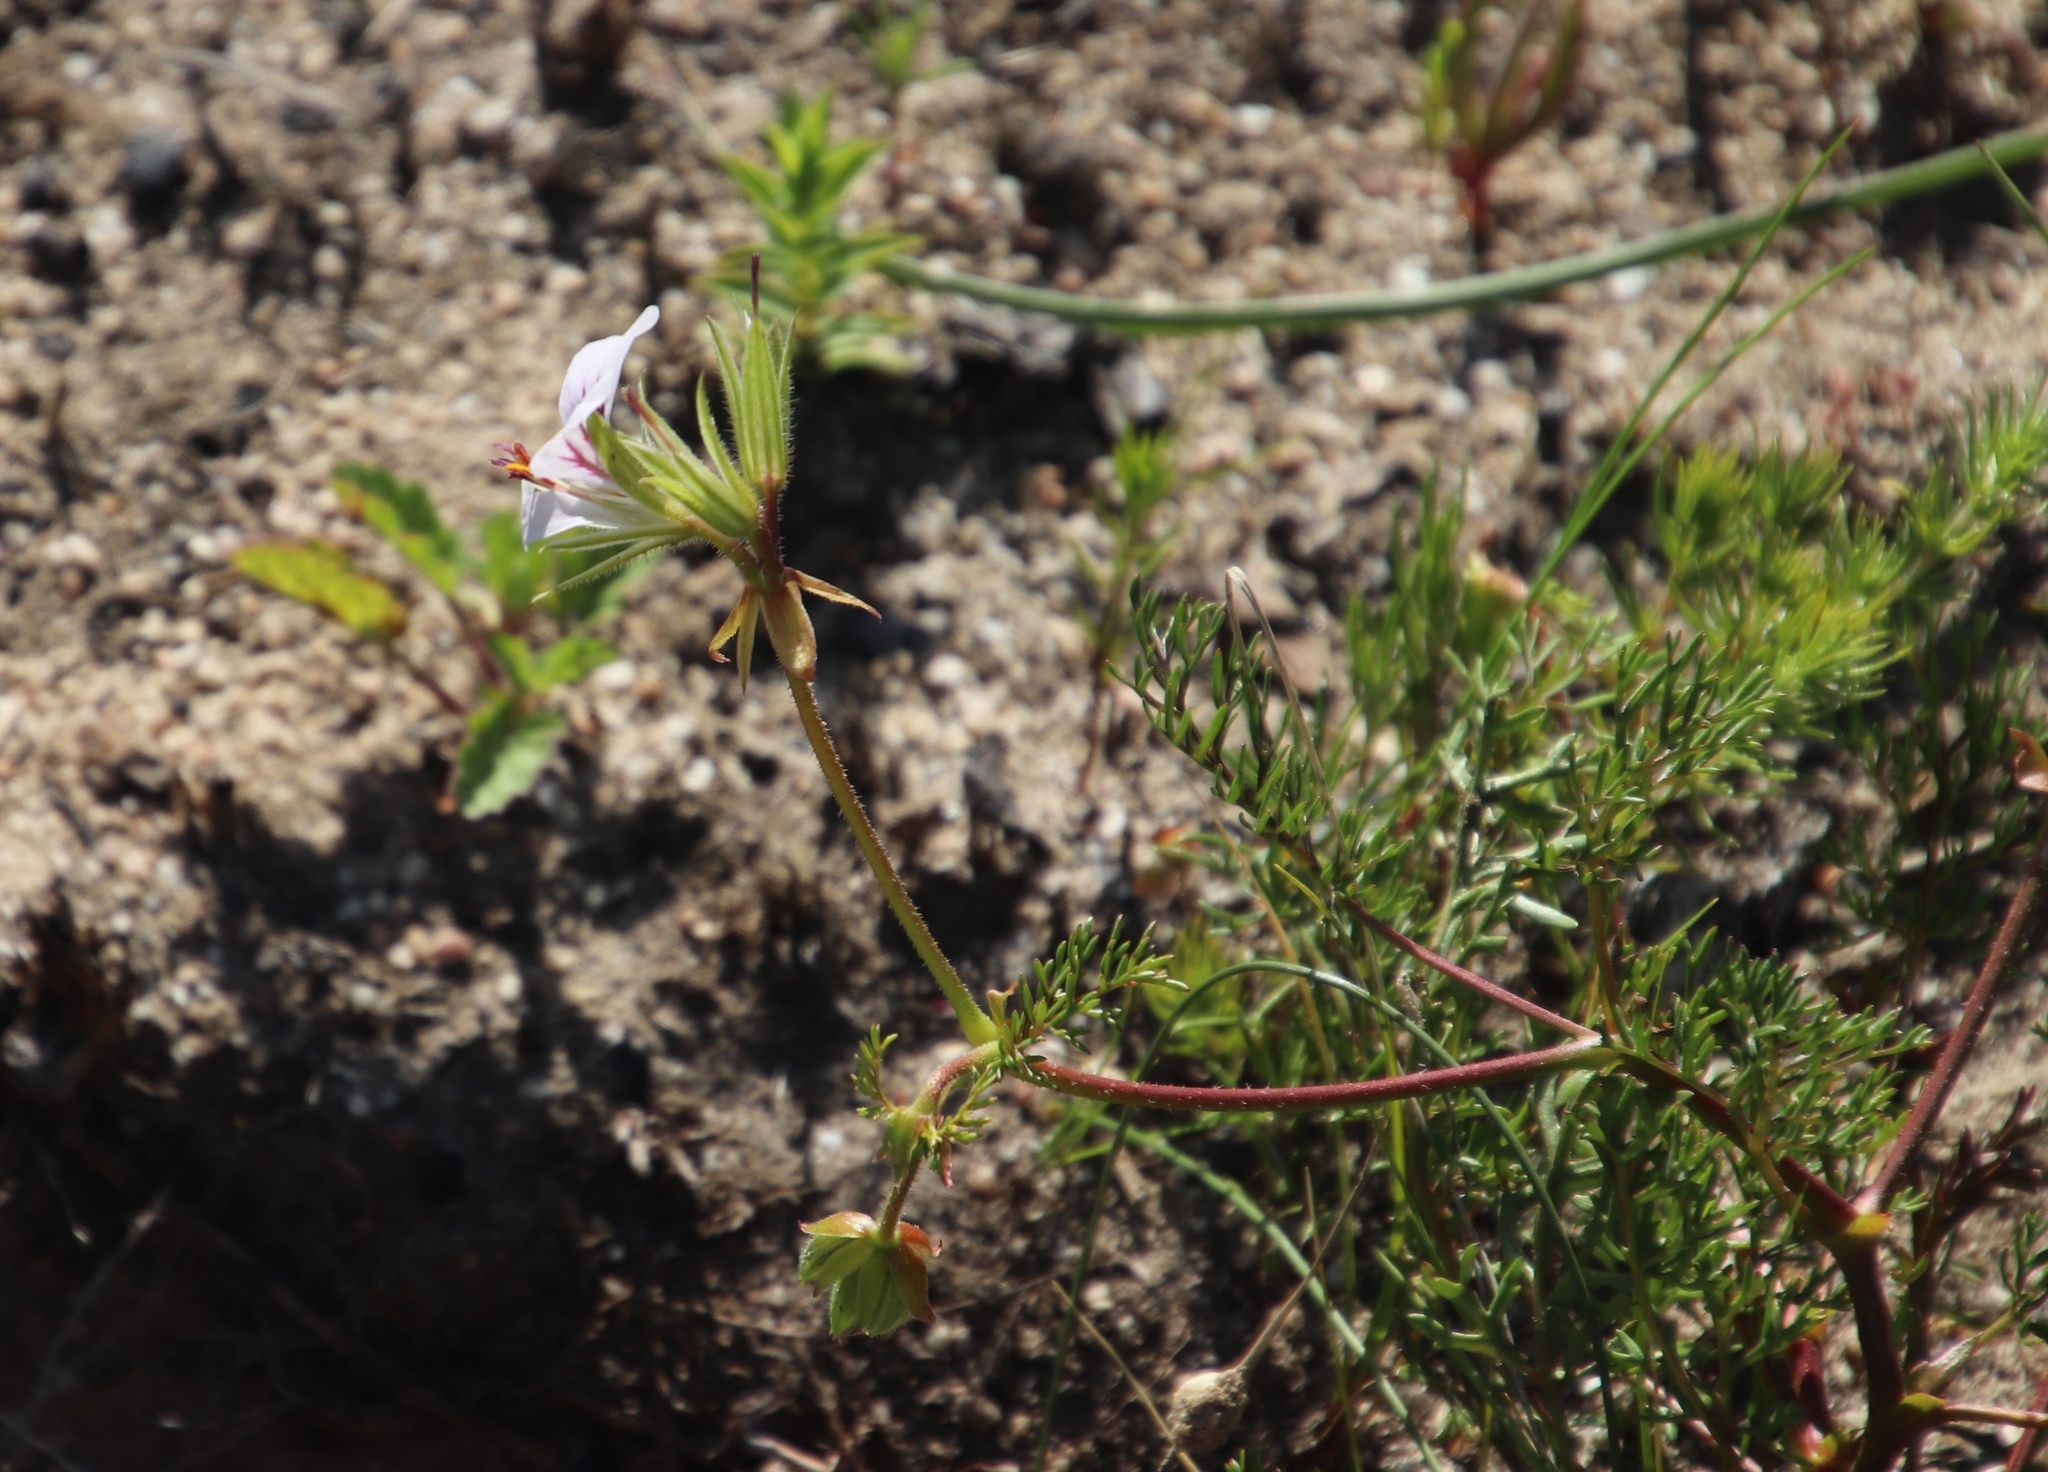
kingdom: Plantae
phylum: Tracheophyta
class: Magnoliopsida
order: Geraniales
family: Geraniaceae
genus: Pelargonium
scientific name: Pelargonium myrrhifolium
